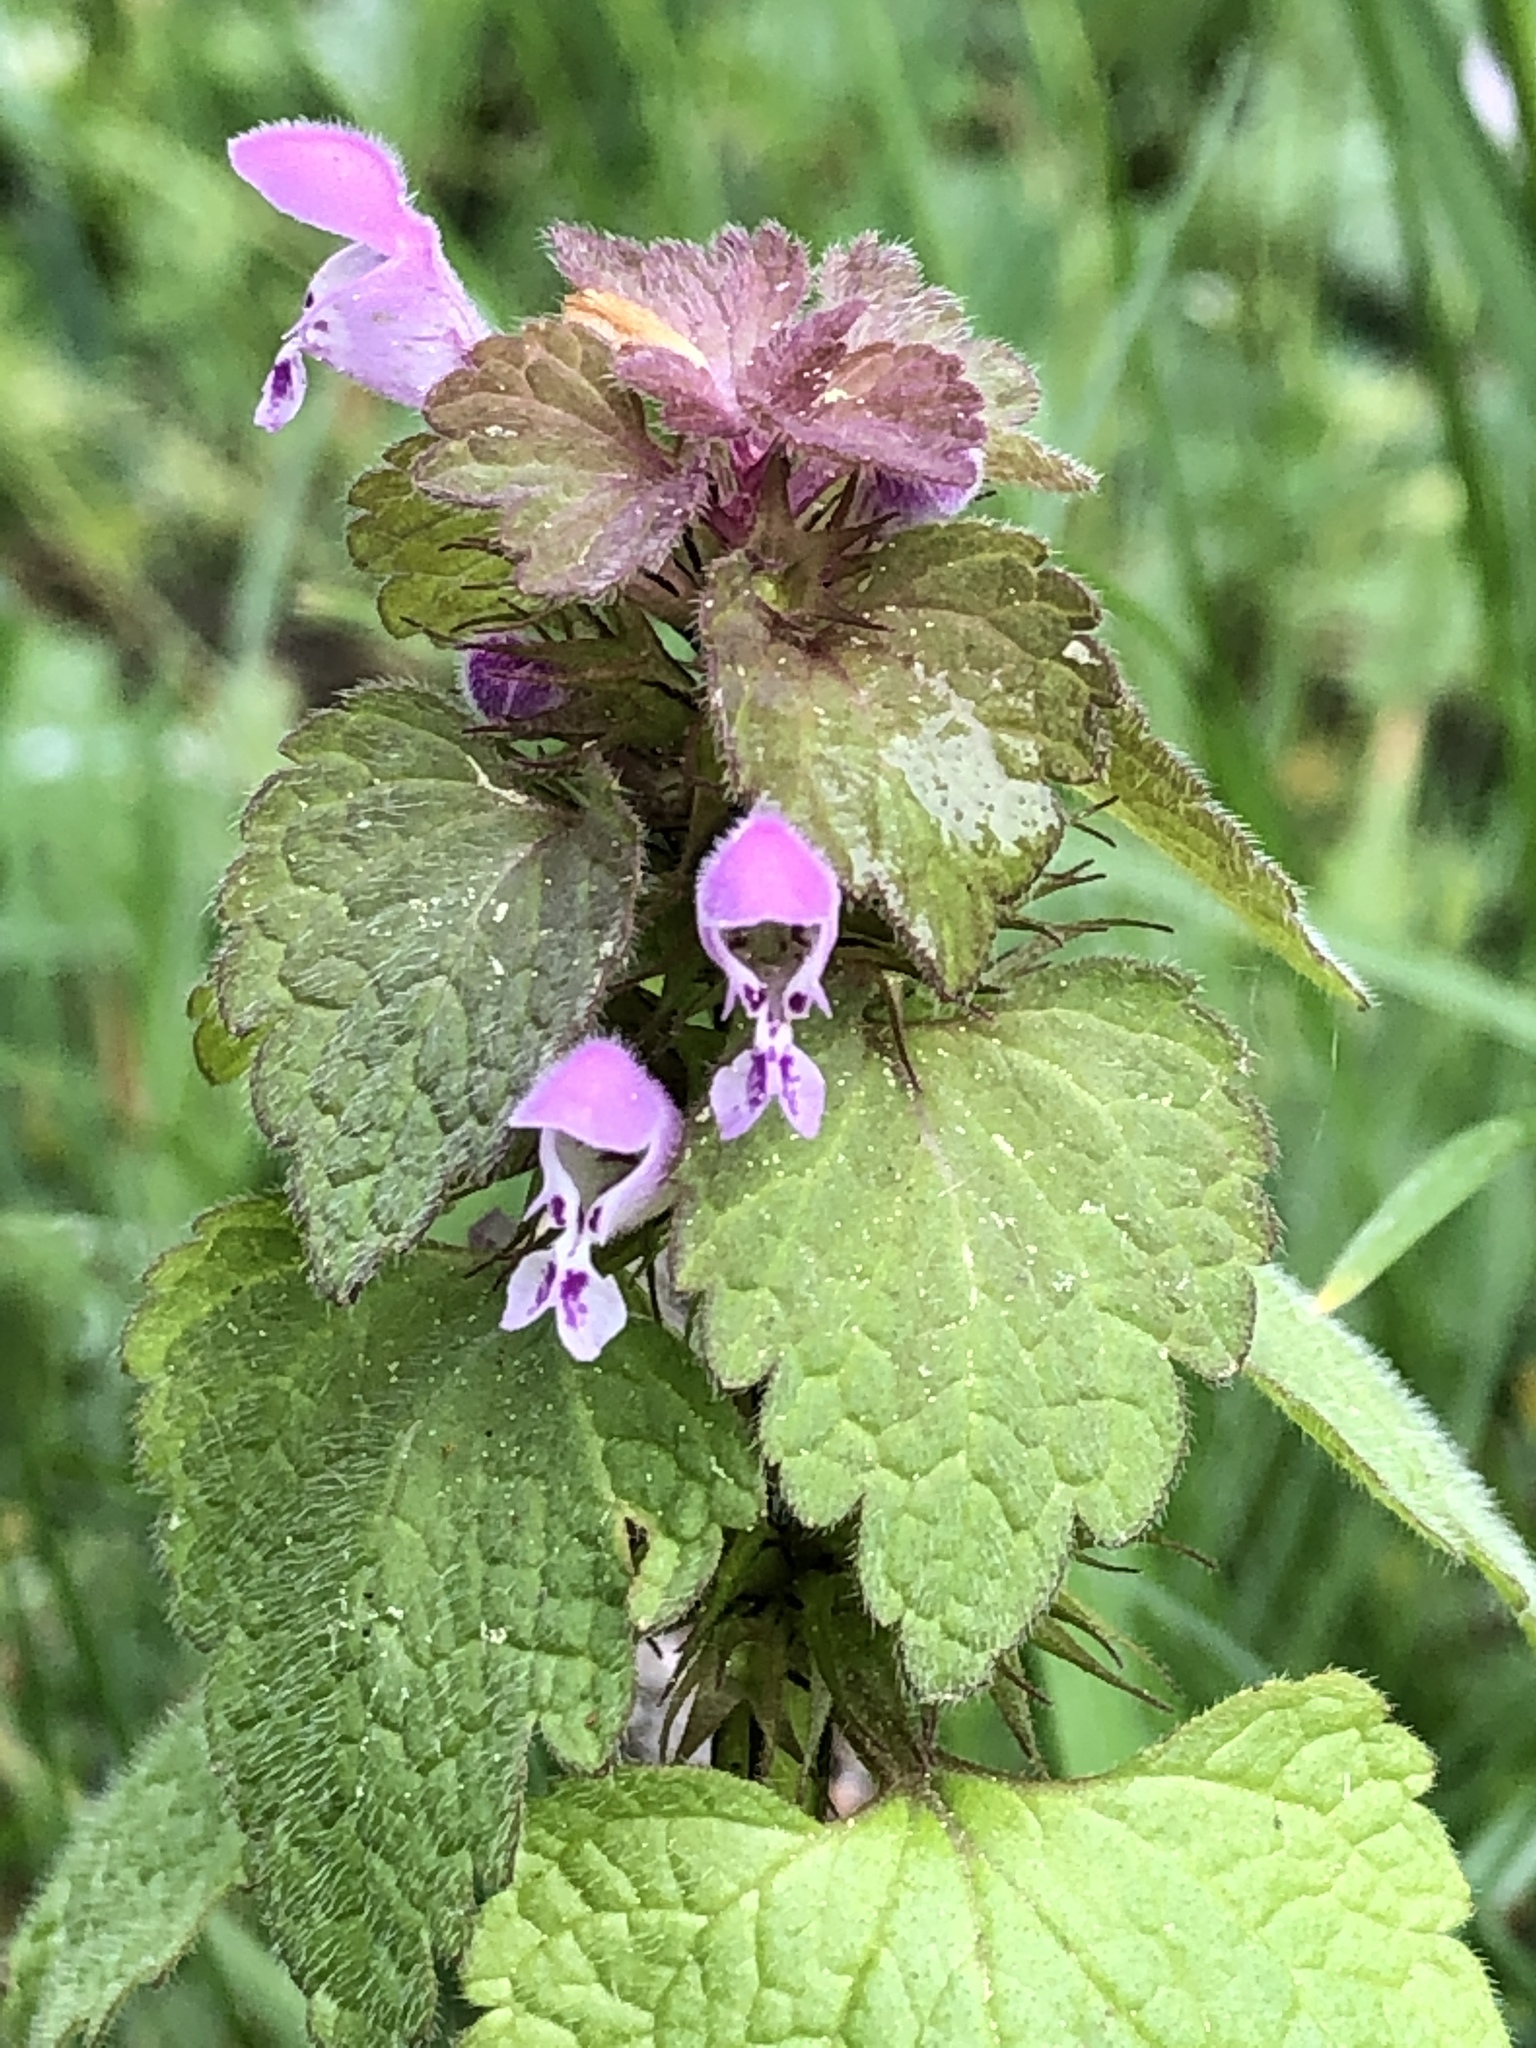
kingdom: Plantae
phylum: Tracheophyta
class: Magnoliopsida
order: Lamiales
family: Lamiaceae
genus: Lamium
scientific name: Lamium purpureum
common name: Red dead-nettle
